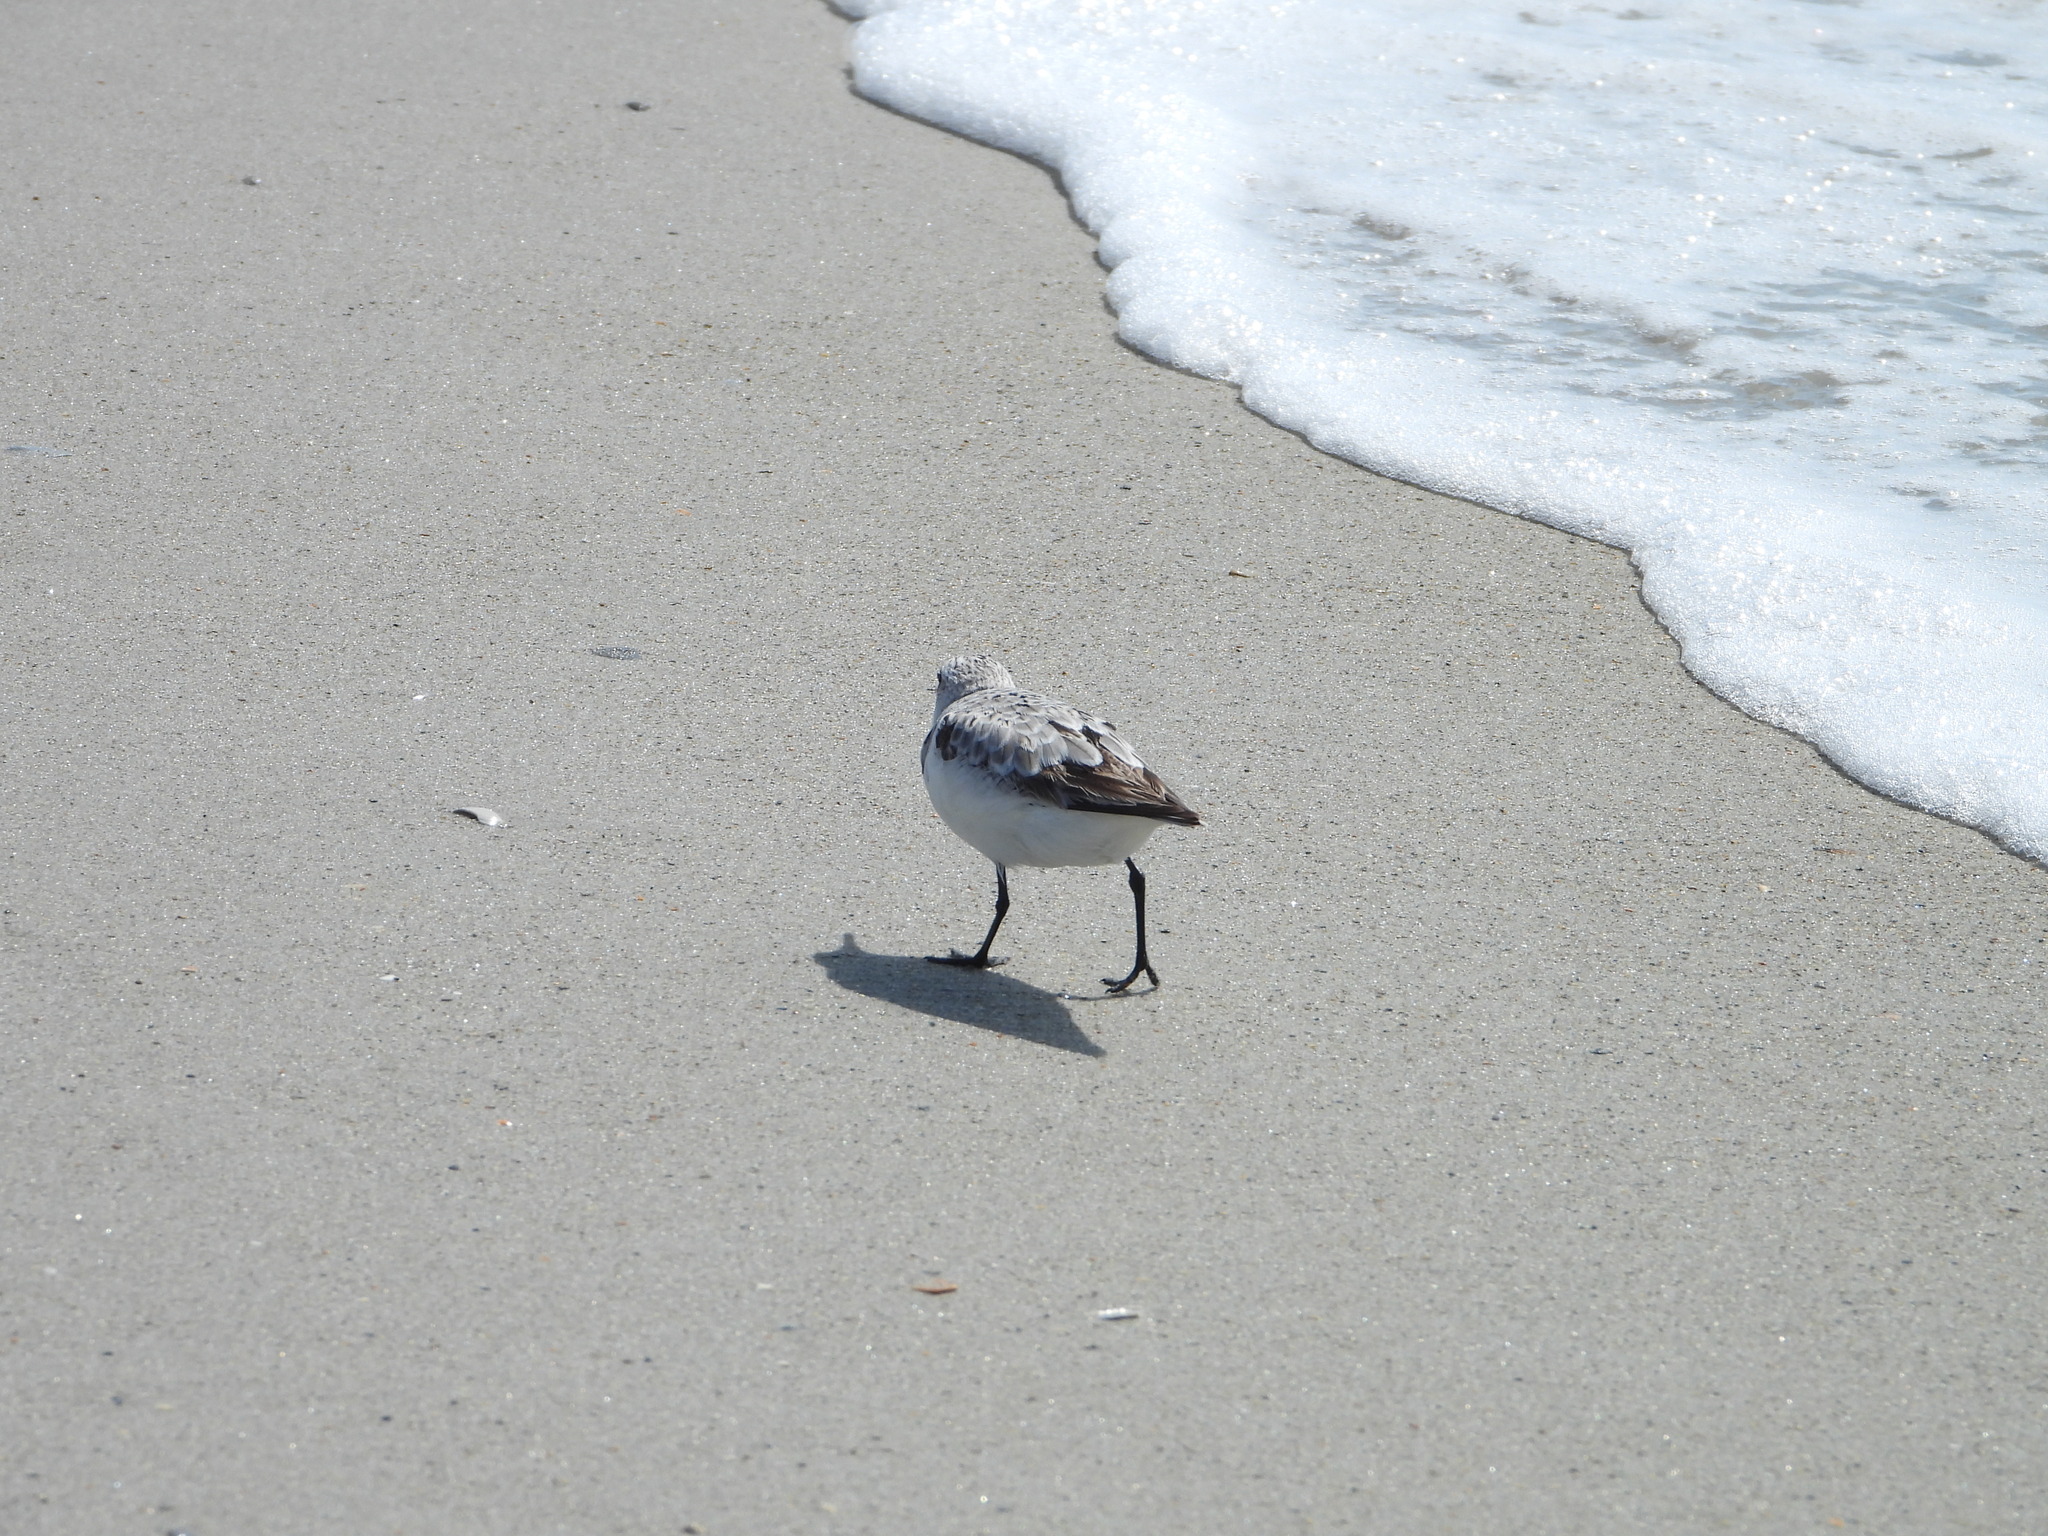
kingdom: Animalia
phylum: Chordata
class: Aves
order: Charadriiformes
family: Scolopacidae
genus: Calidris
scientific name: Calidris alba
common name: Sanderling
